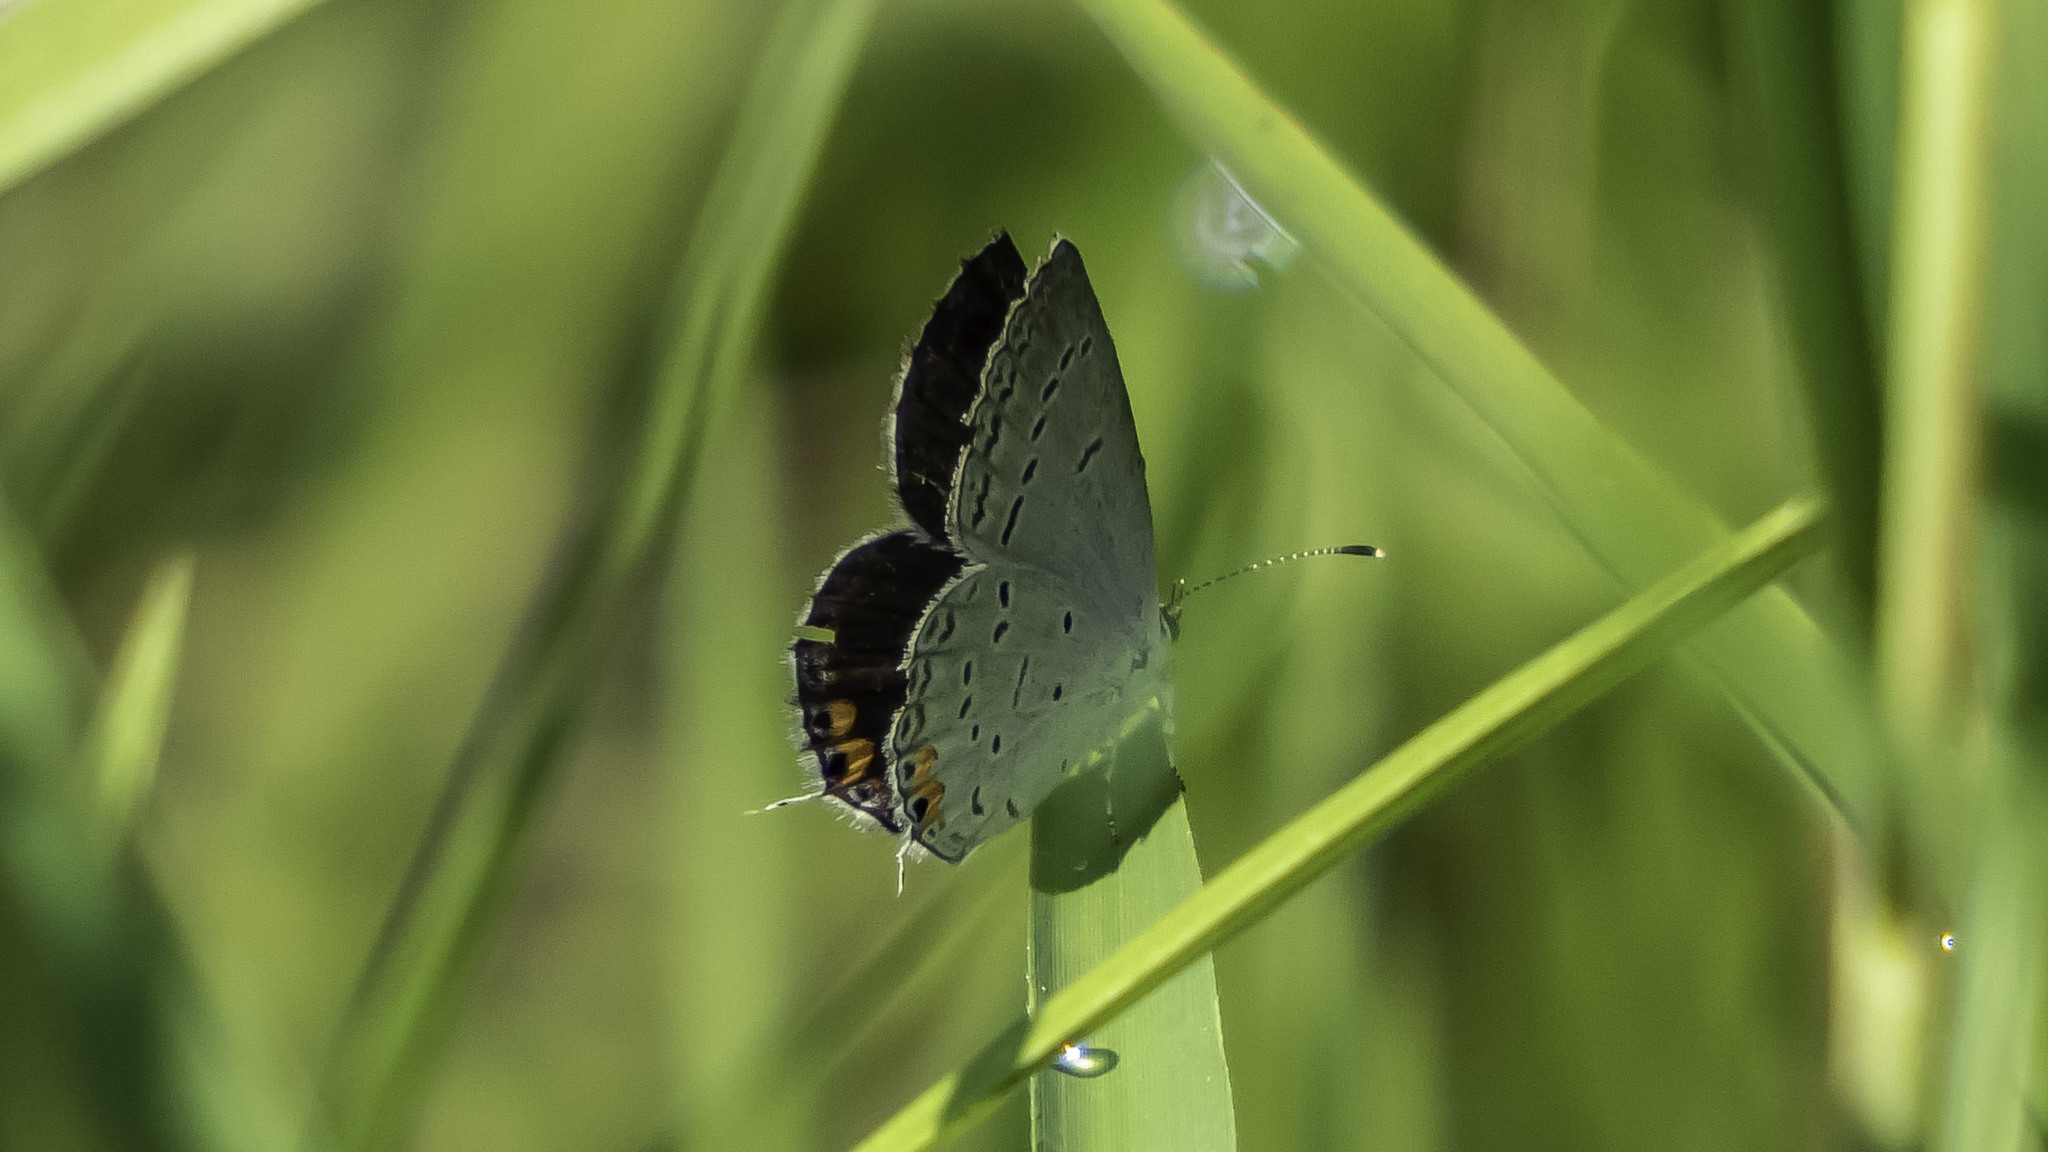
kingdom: Animalia
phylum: Arthropoda
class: Insecta
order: Lepidoptera
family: Lycaenidae
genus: Elkalyce
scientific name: Elkalyce comyntas
